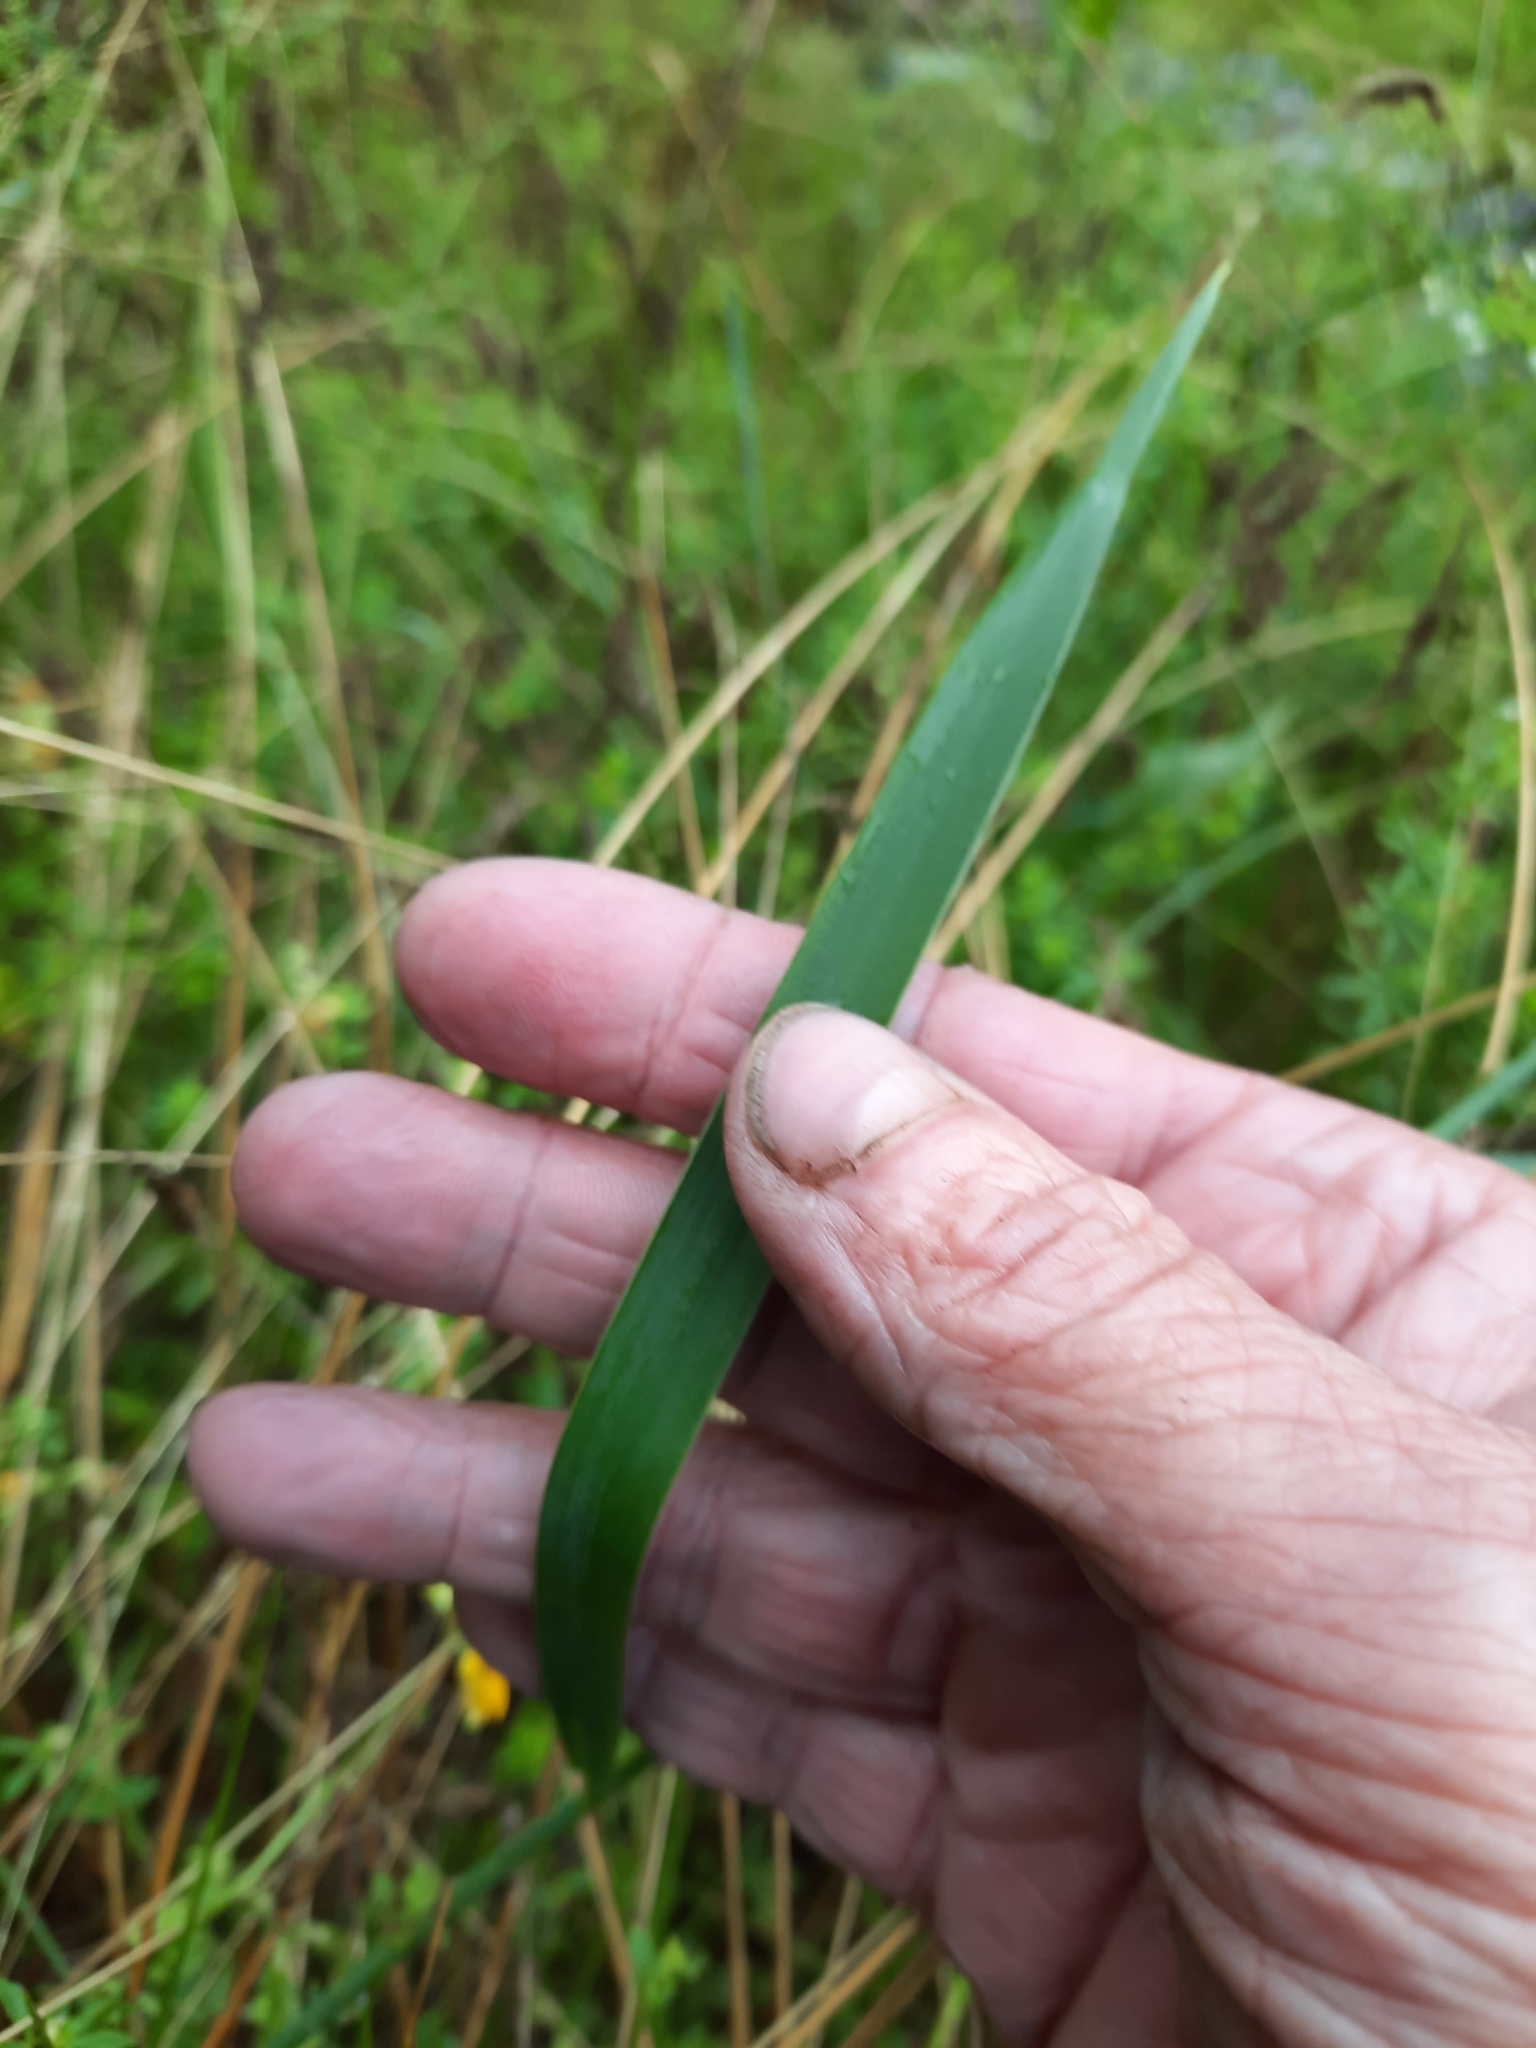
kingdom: Plantae
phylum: Tracheophyta
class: Liliopsida
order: Poales
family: Poaceae
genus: Elymus
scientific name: Elymus repens
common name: Quackgrass
